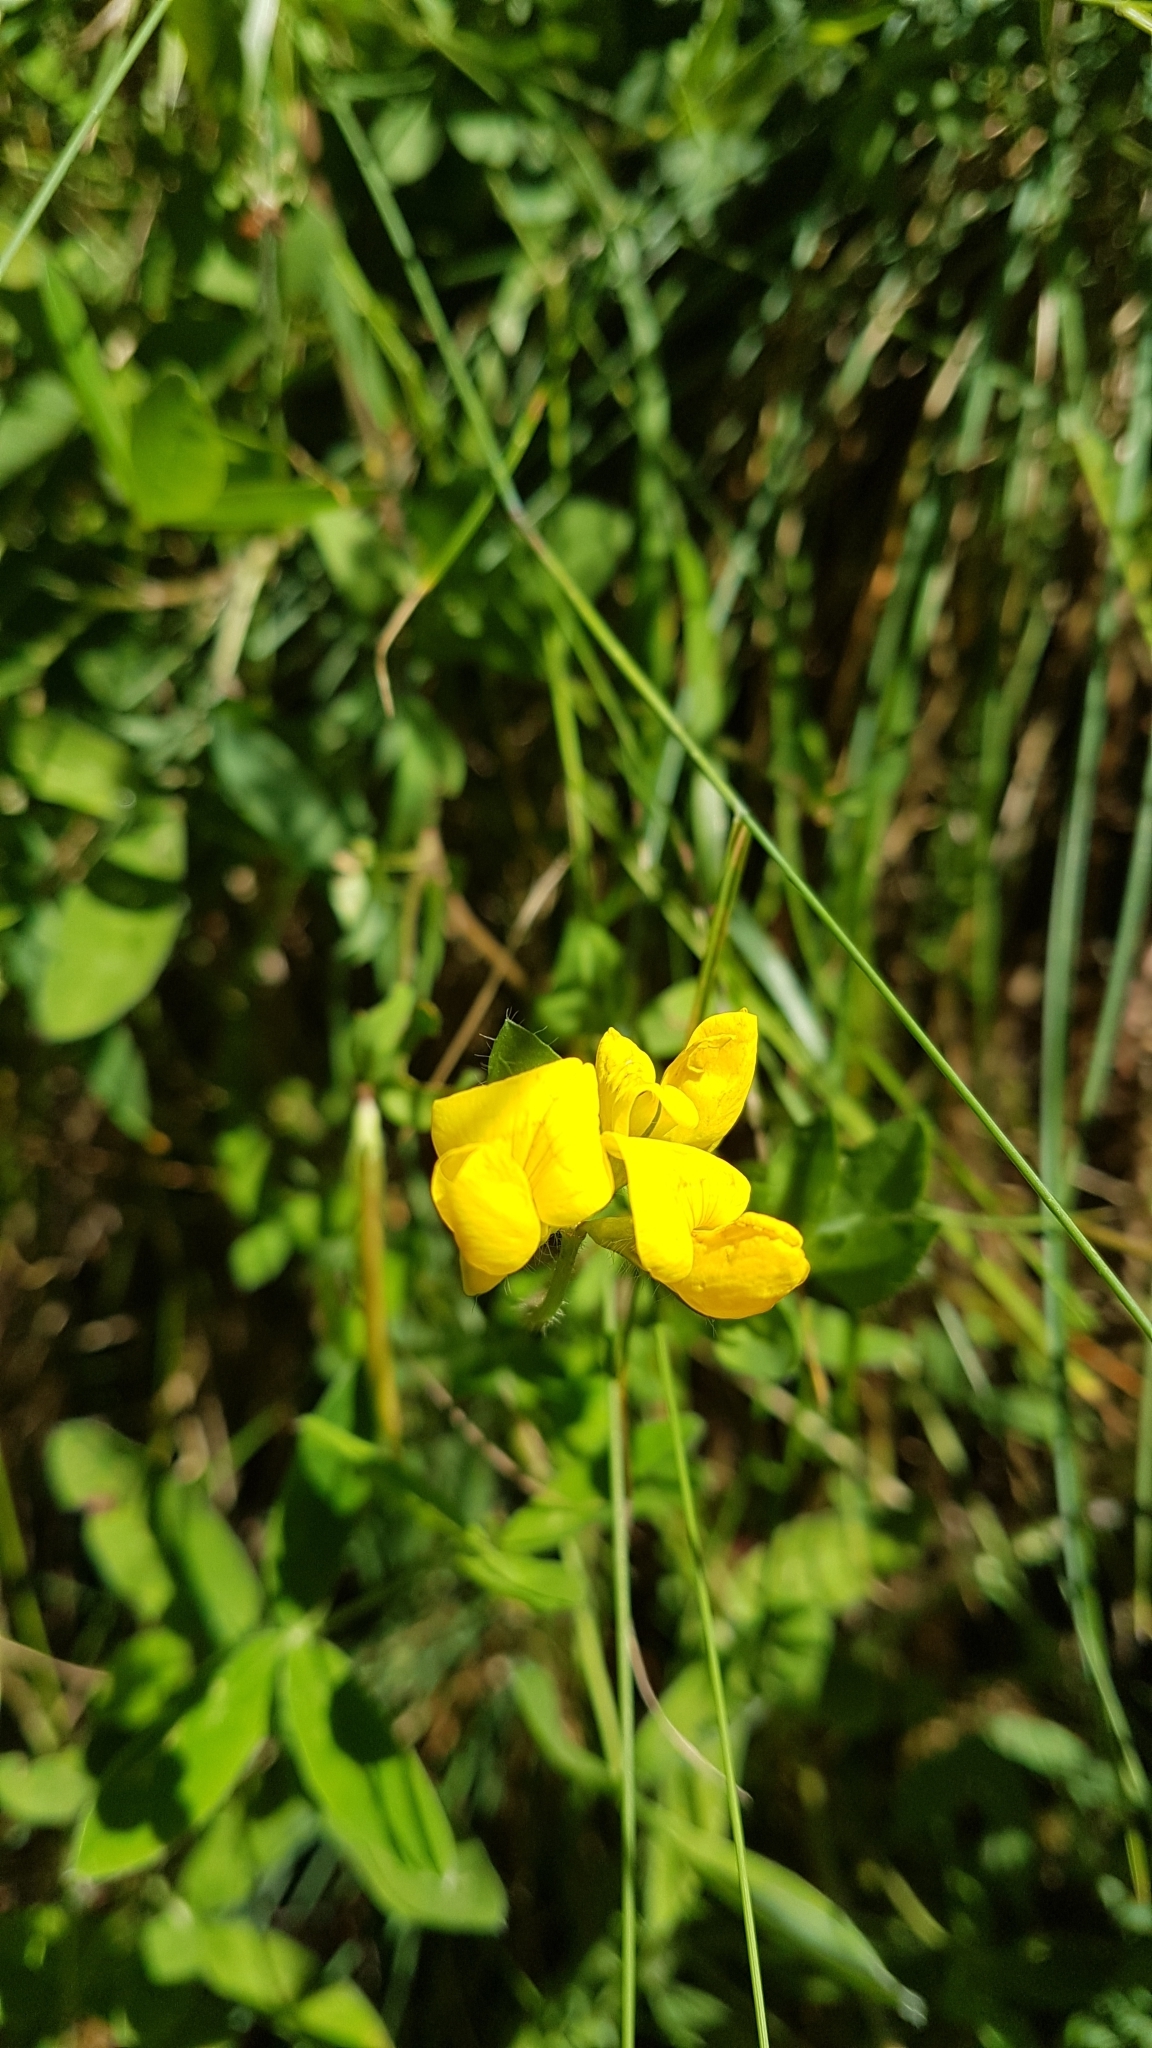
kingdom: Plantae
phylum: Tracheophyta
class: Magnoliopsida
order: Fabales
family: Fabaceae
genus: Lotus
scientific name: Lotus corniculatus
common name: Common bird's-foot-trefoil
